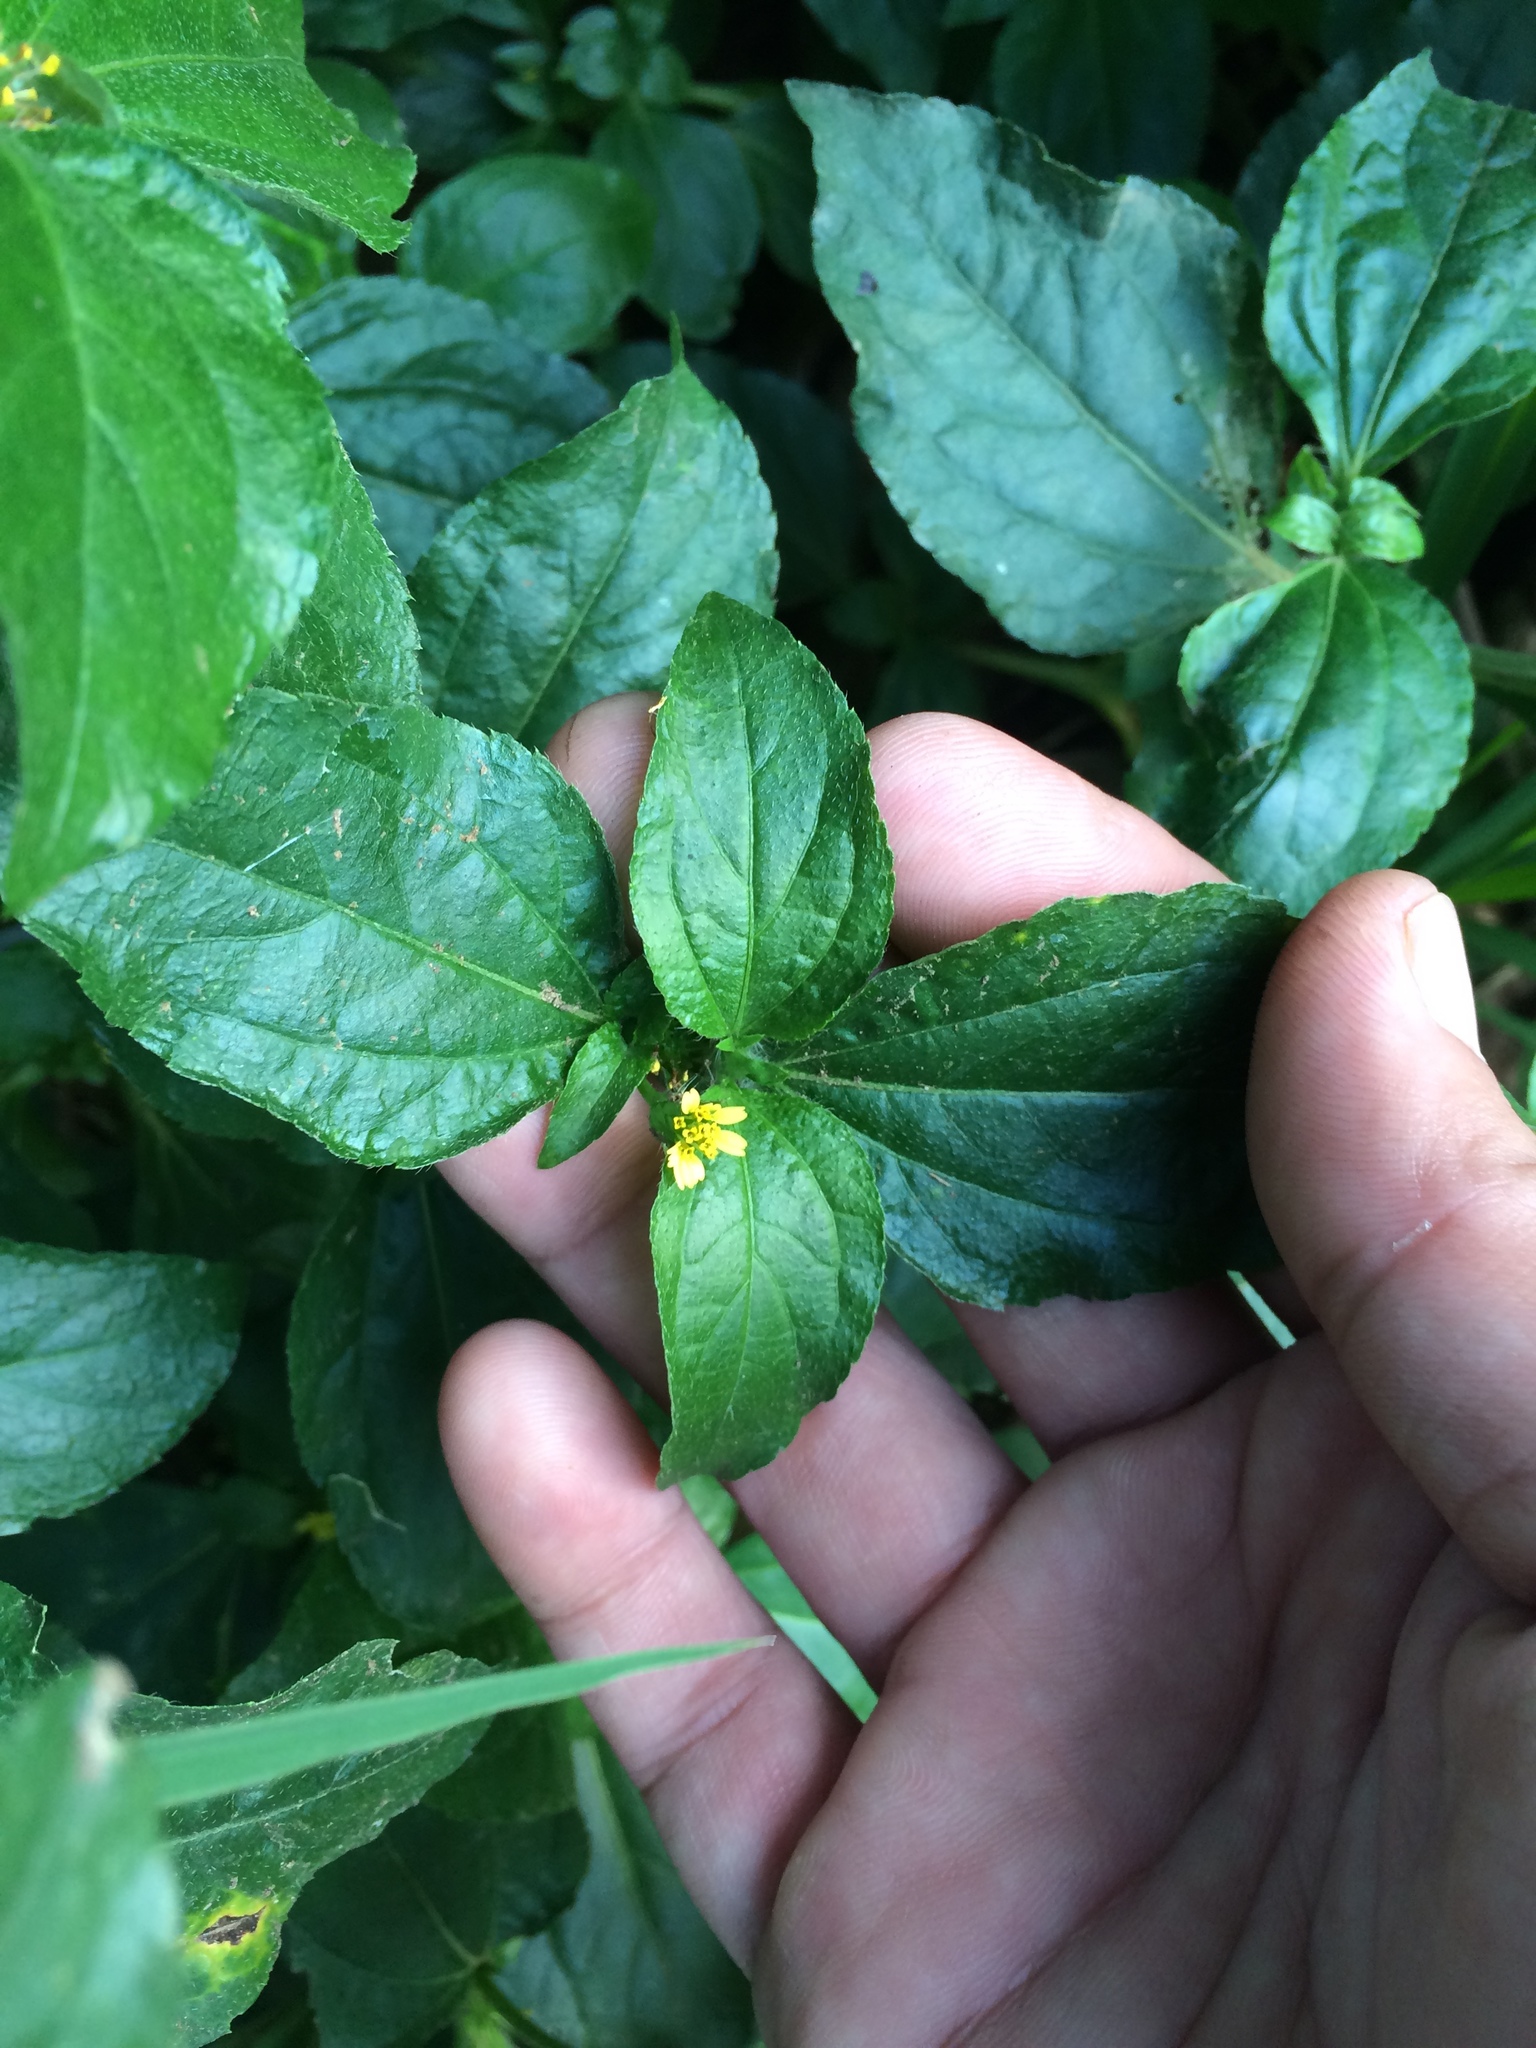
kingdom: Plantae
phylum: Tracheophyta
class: Magnoliopsida
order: Asterales
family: Asteraceae
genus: Synedrella
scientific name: Synedrella nodiflora
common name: Nodeweed
